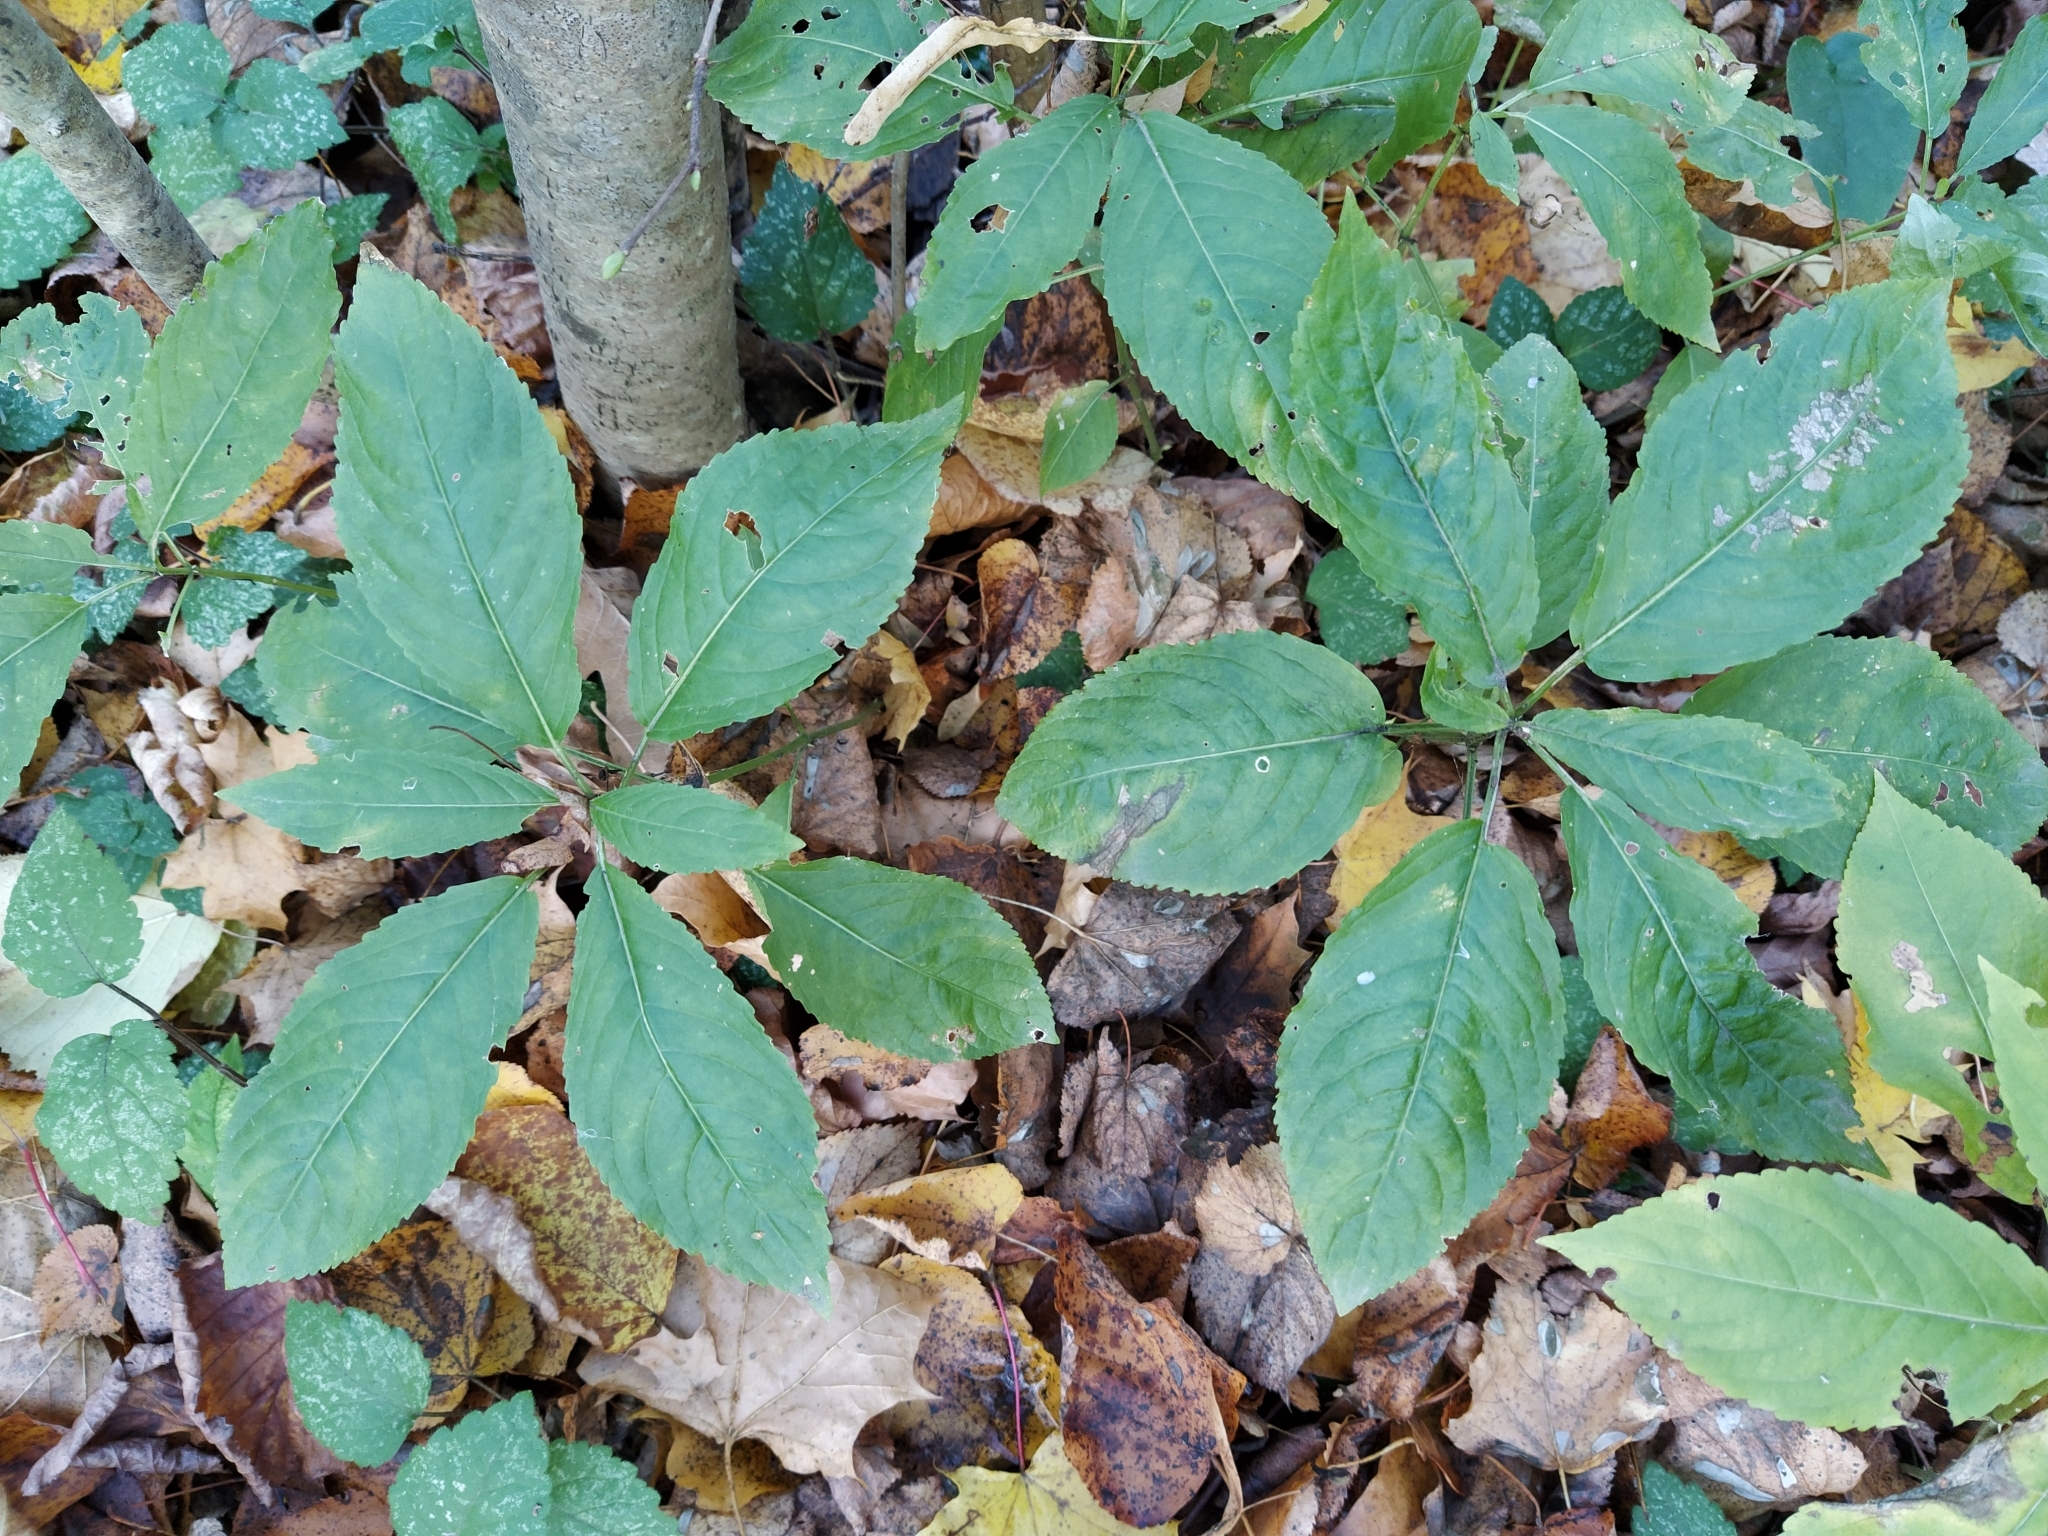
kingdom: Plantae
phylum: Tracheophyta
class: Magnoliopsida
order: Malpighiales
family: Euphorbiaceae
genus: Mercurialis
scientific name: Mercurialis perennis
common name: Dog mercury
